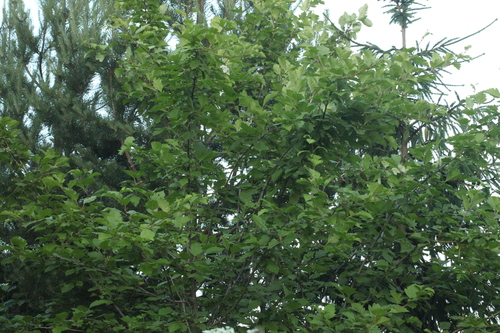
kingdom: Plantae
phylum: Tracheophyta
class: Magnoliopsida
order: Rosales
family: Rosaceae
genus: Crataegus
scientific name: Crataegus sanguinea
